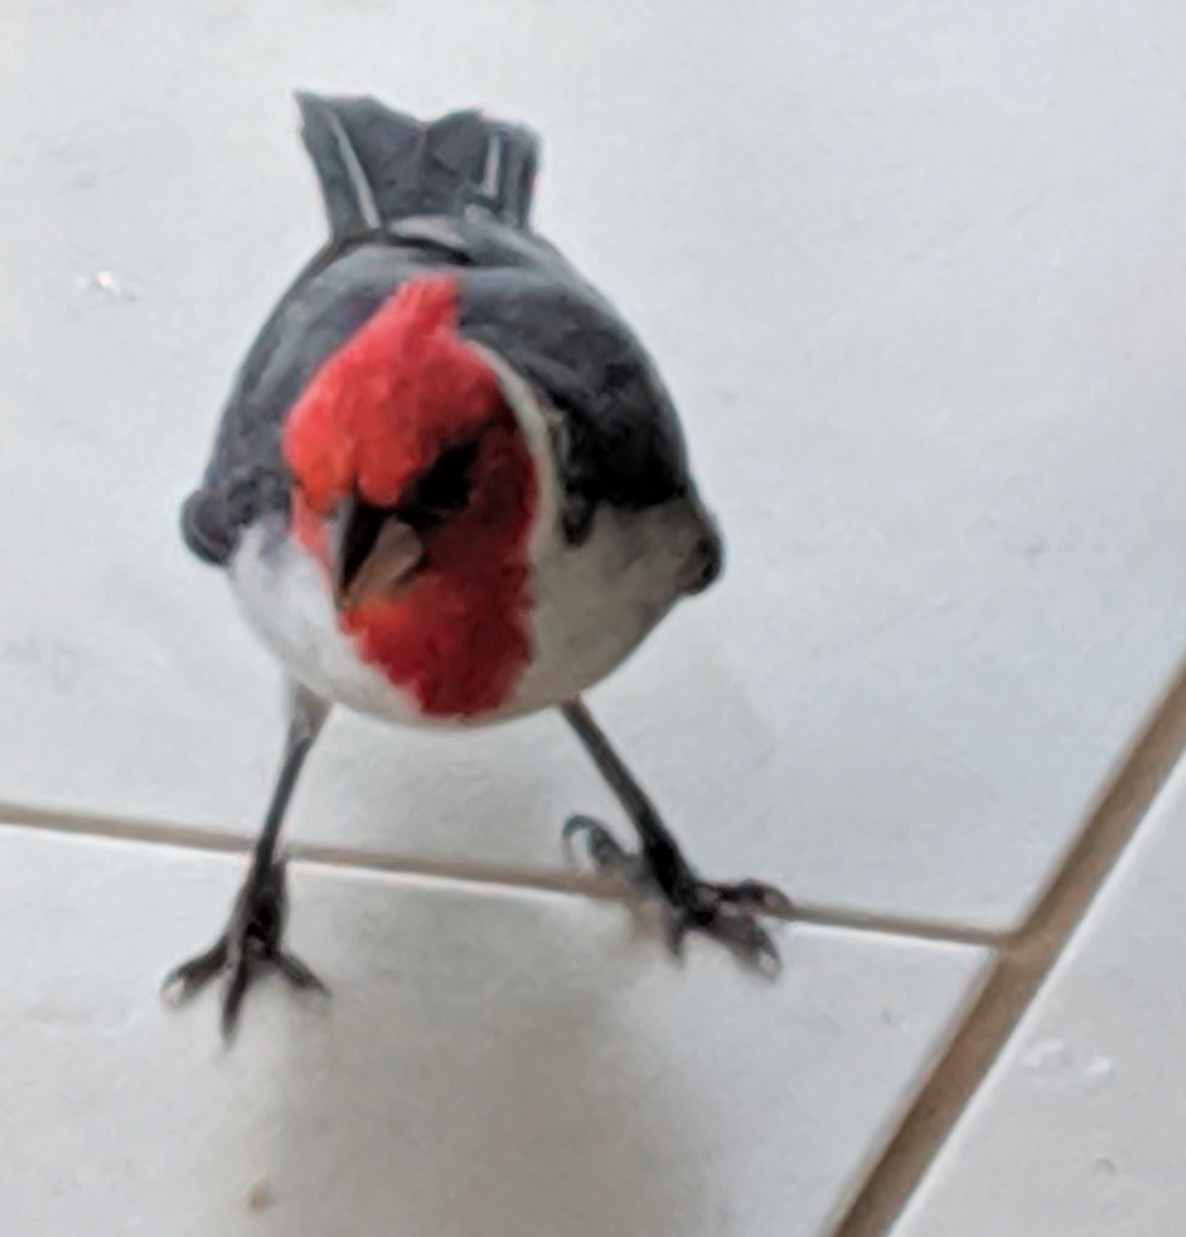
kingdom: Animalia
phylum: Chordata
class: Aves
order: Passeriformes
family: Thraupidae
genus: Paroaria
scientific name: Paroaria coronata
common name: Red-crested cardinal
